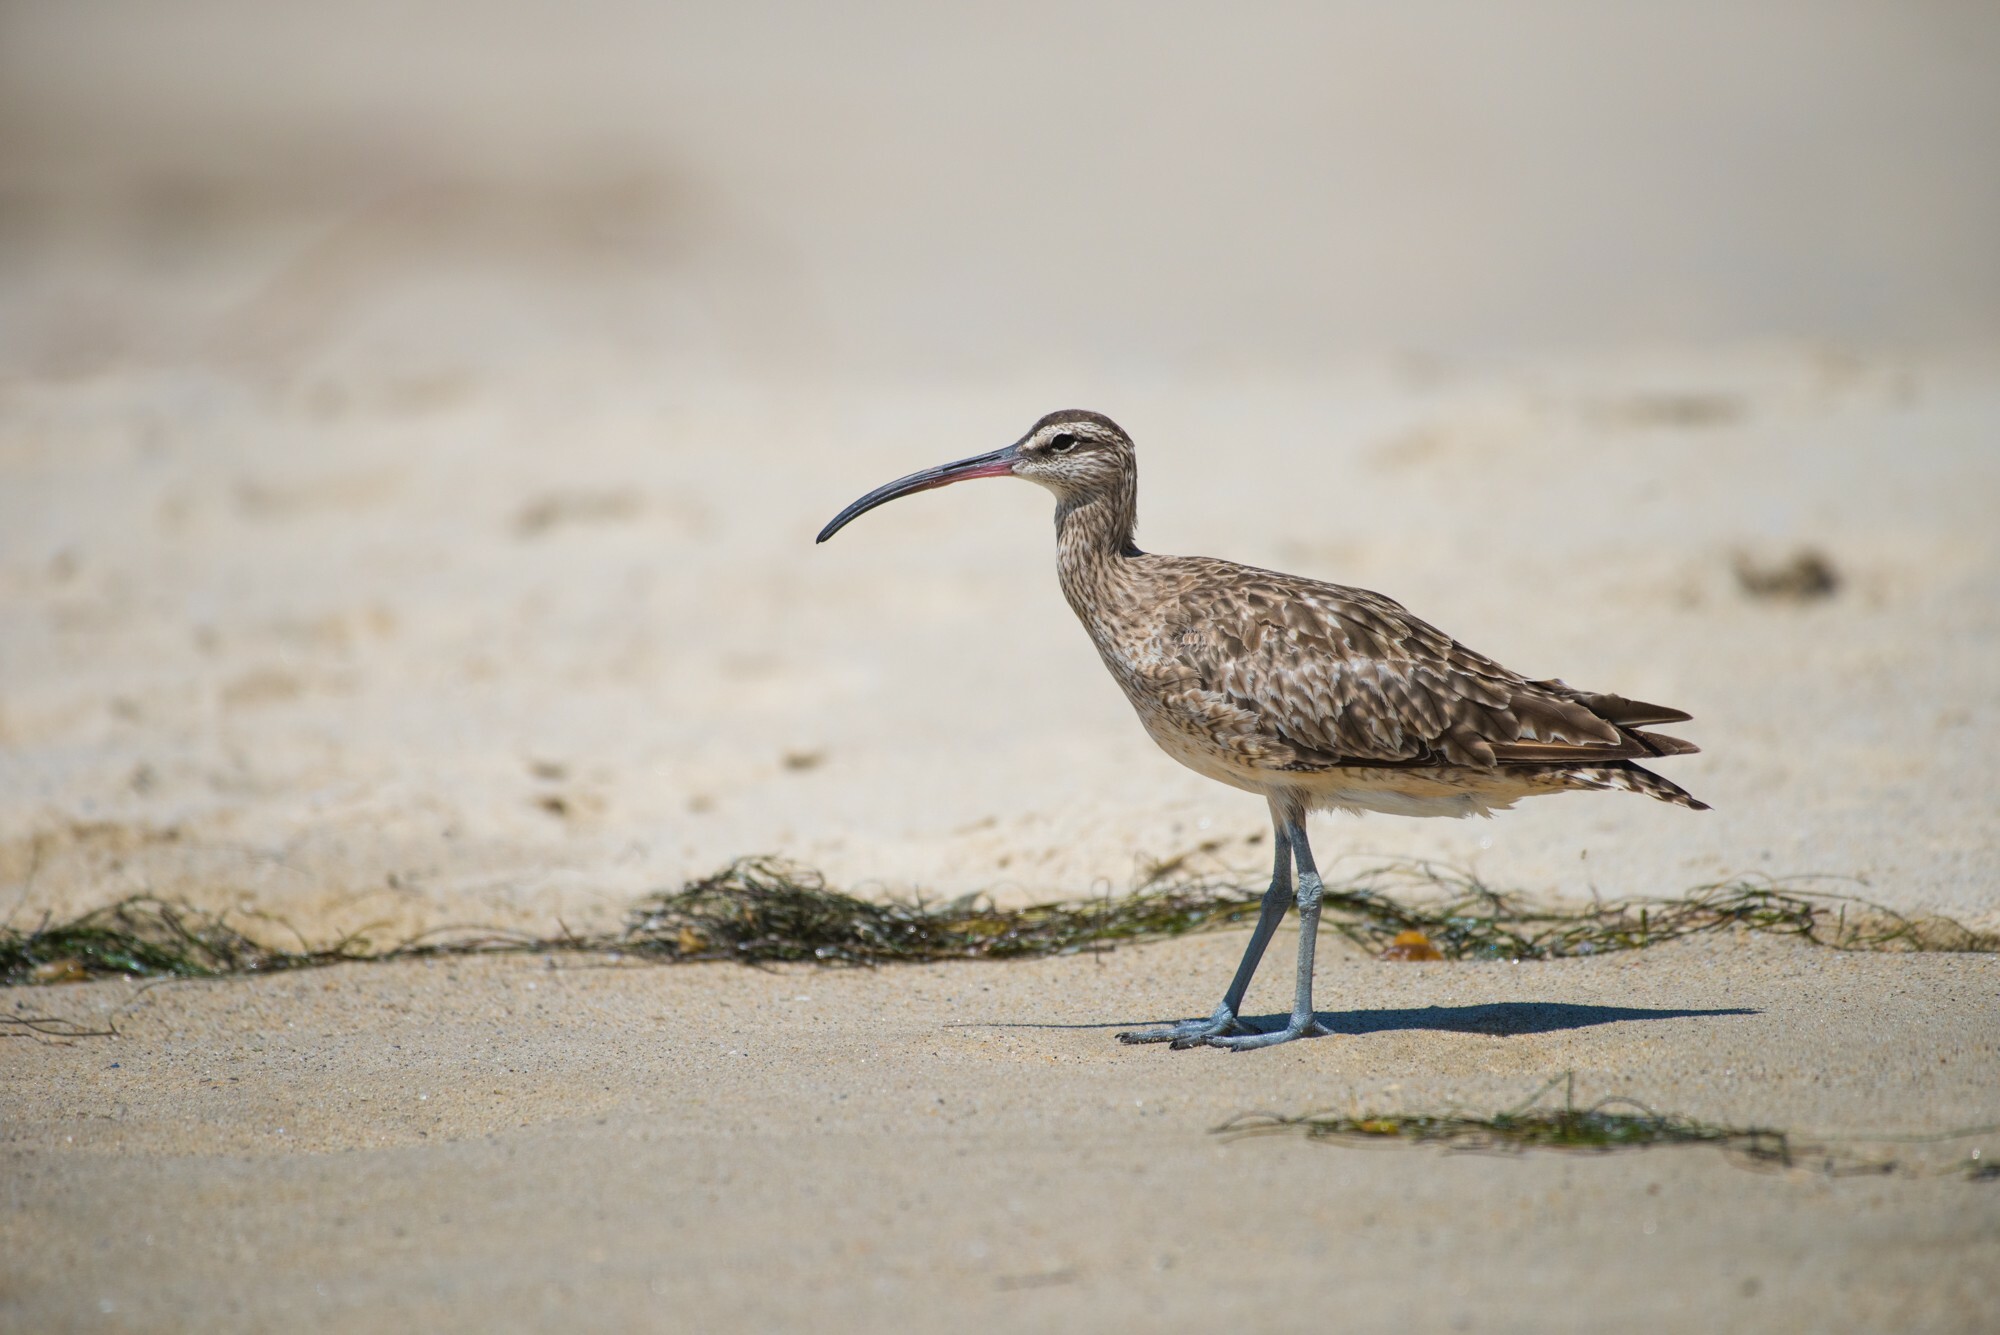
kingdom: Animalia
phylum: Chordata
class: Aves
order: Charadriiformes
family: Scolopacidae
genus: Numenius
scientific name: Numenius phaeopus
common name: Whimbrel
